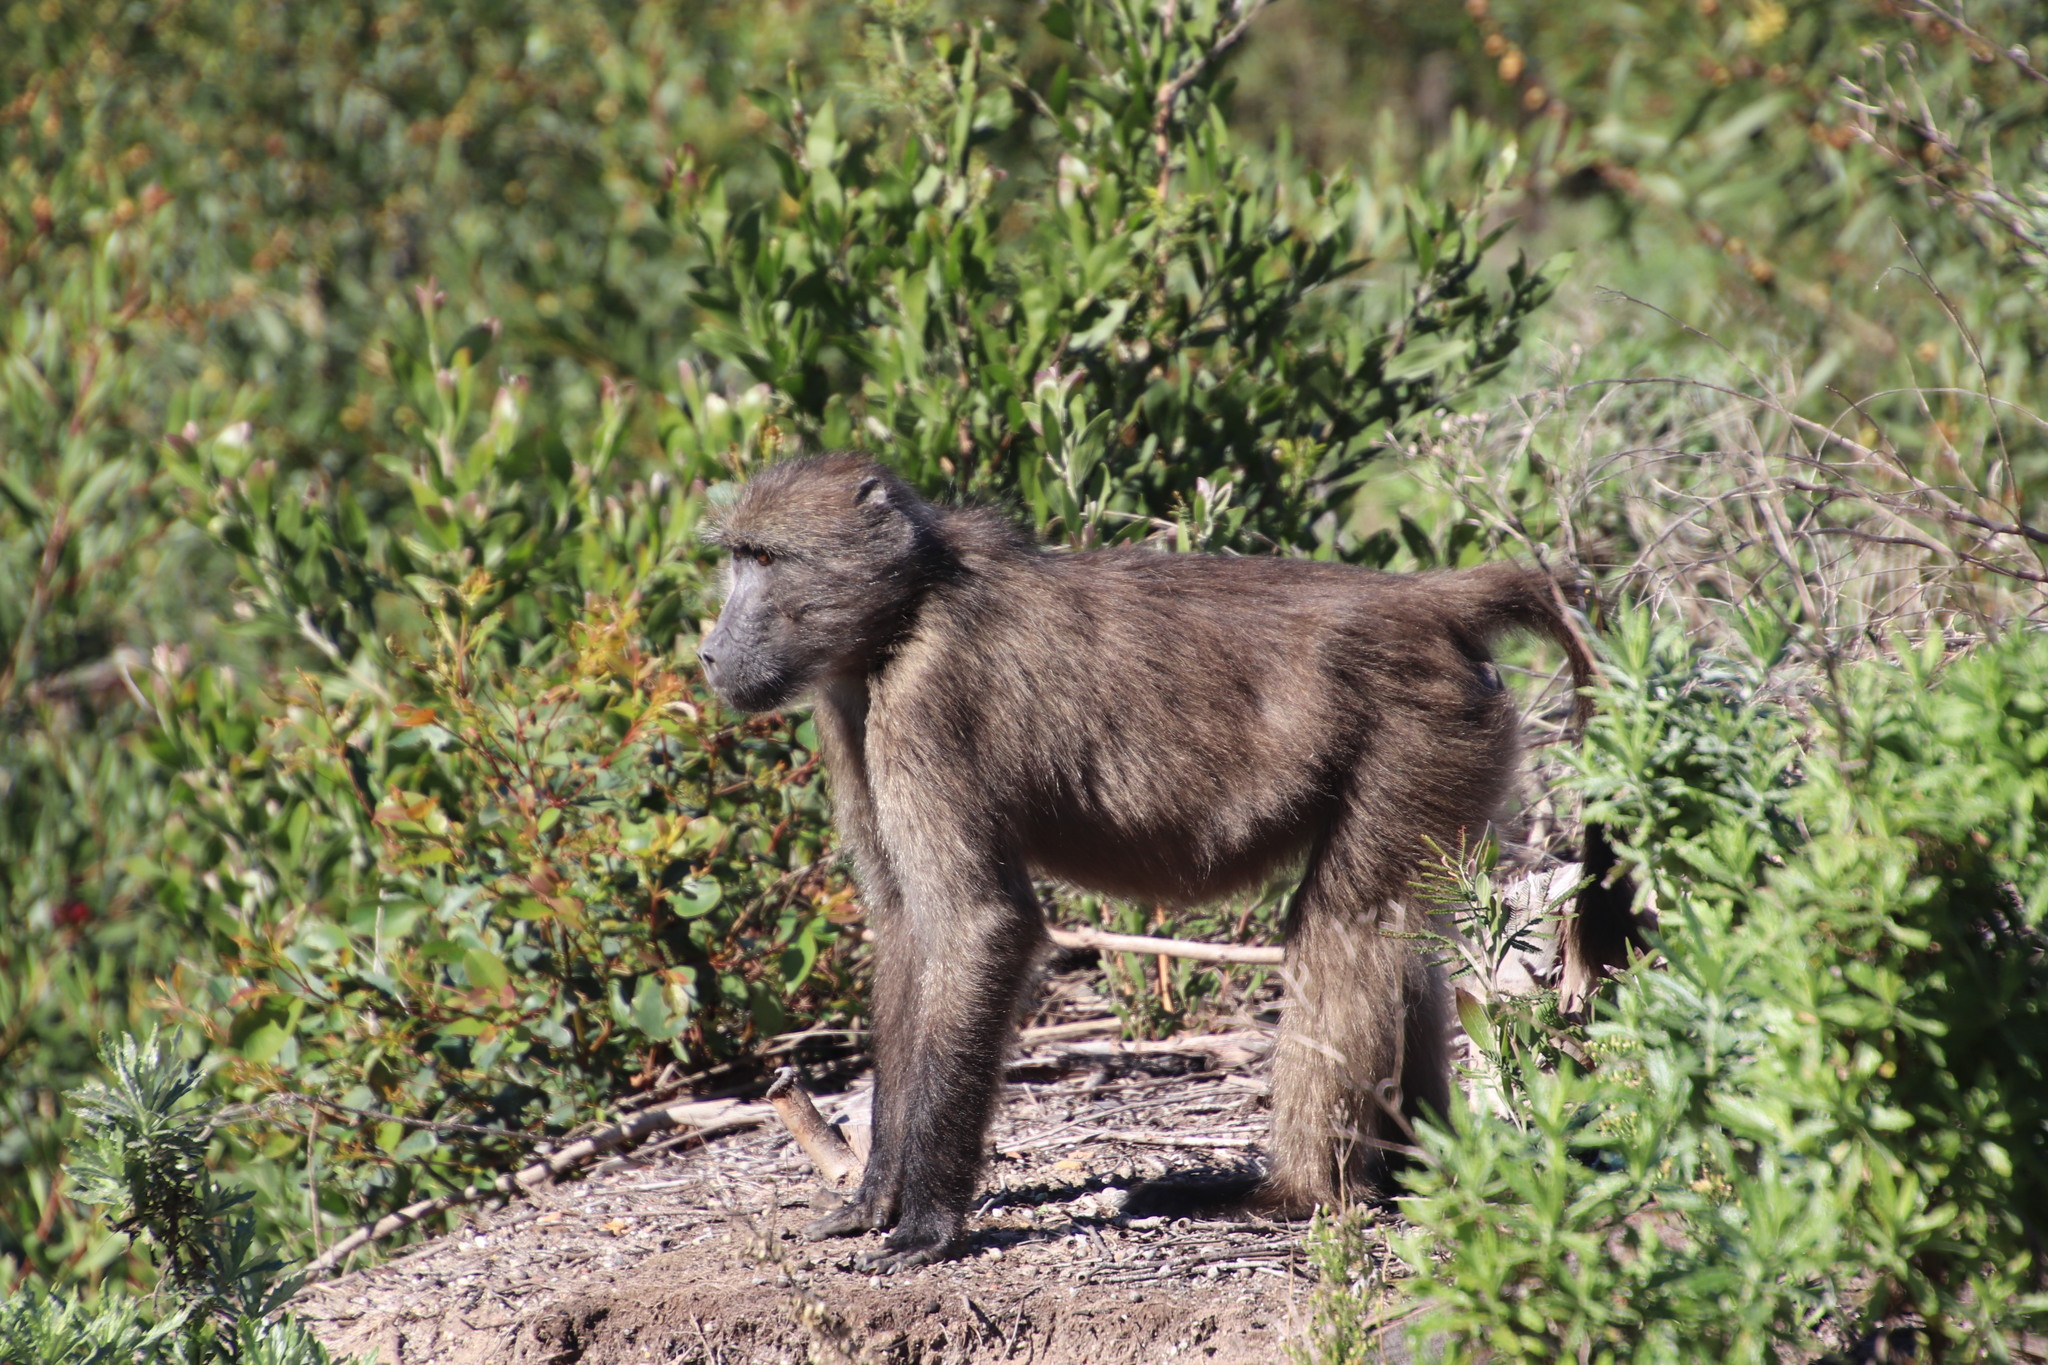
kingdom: Animalia
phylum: Chordata
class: Mammalia
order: Primates
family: Cercopithecidae
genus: Papio
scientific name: Papio ursinus
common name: Chacma baboon
